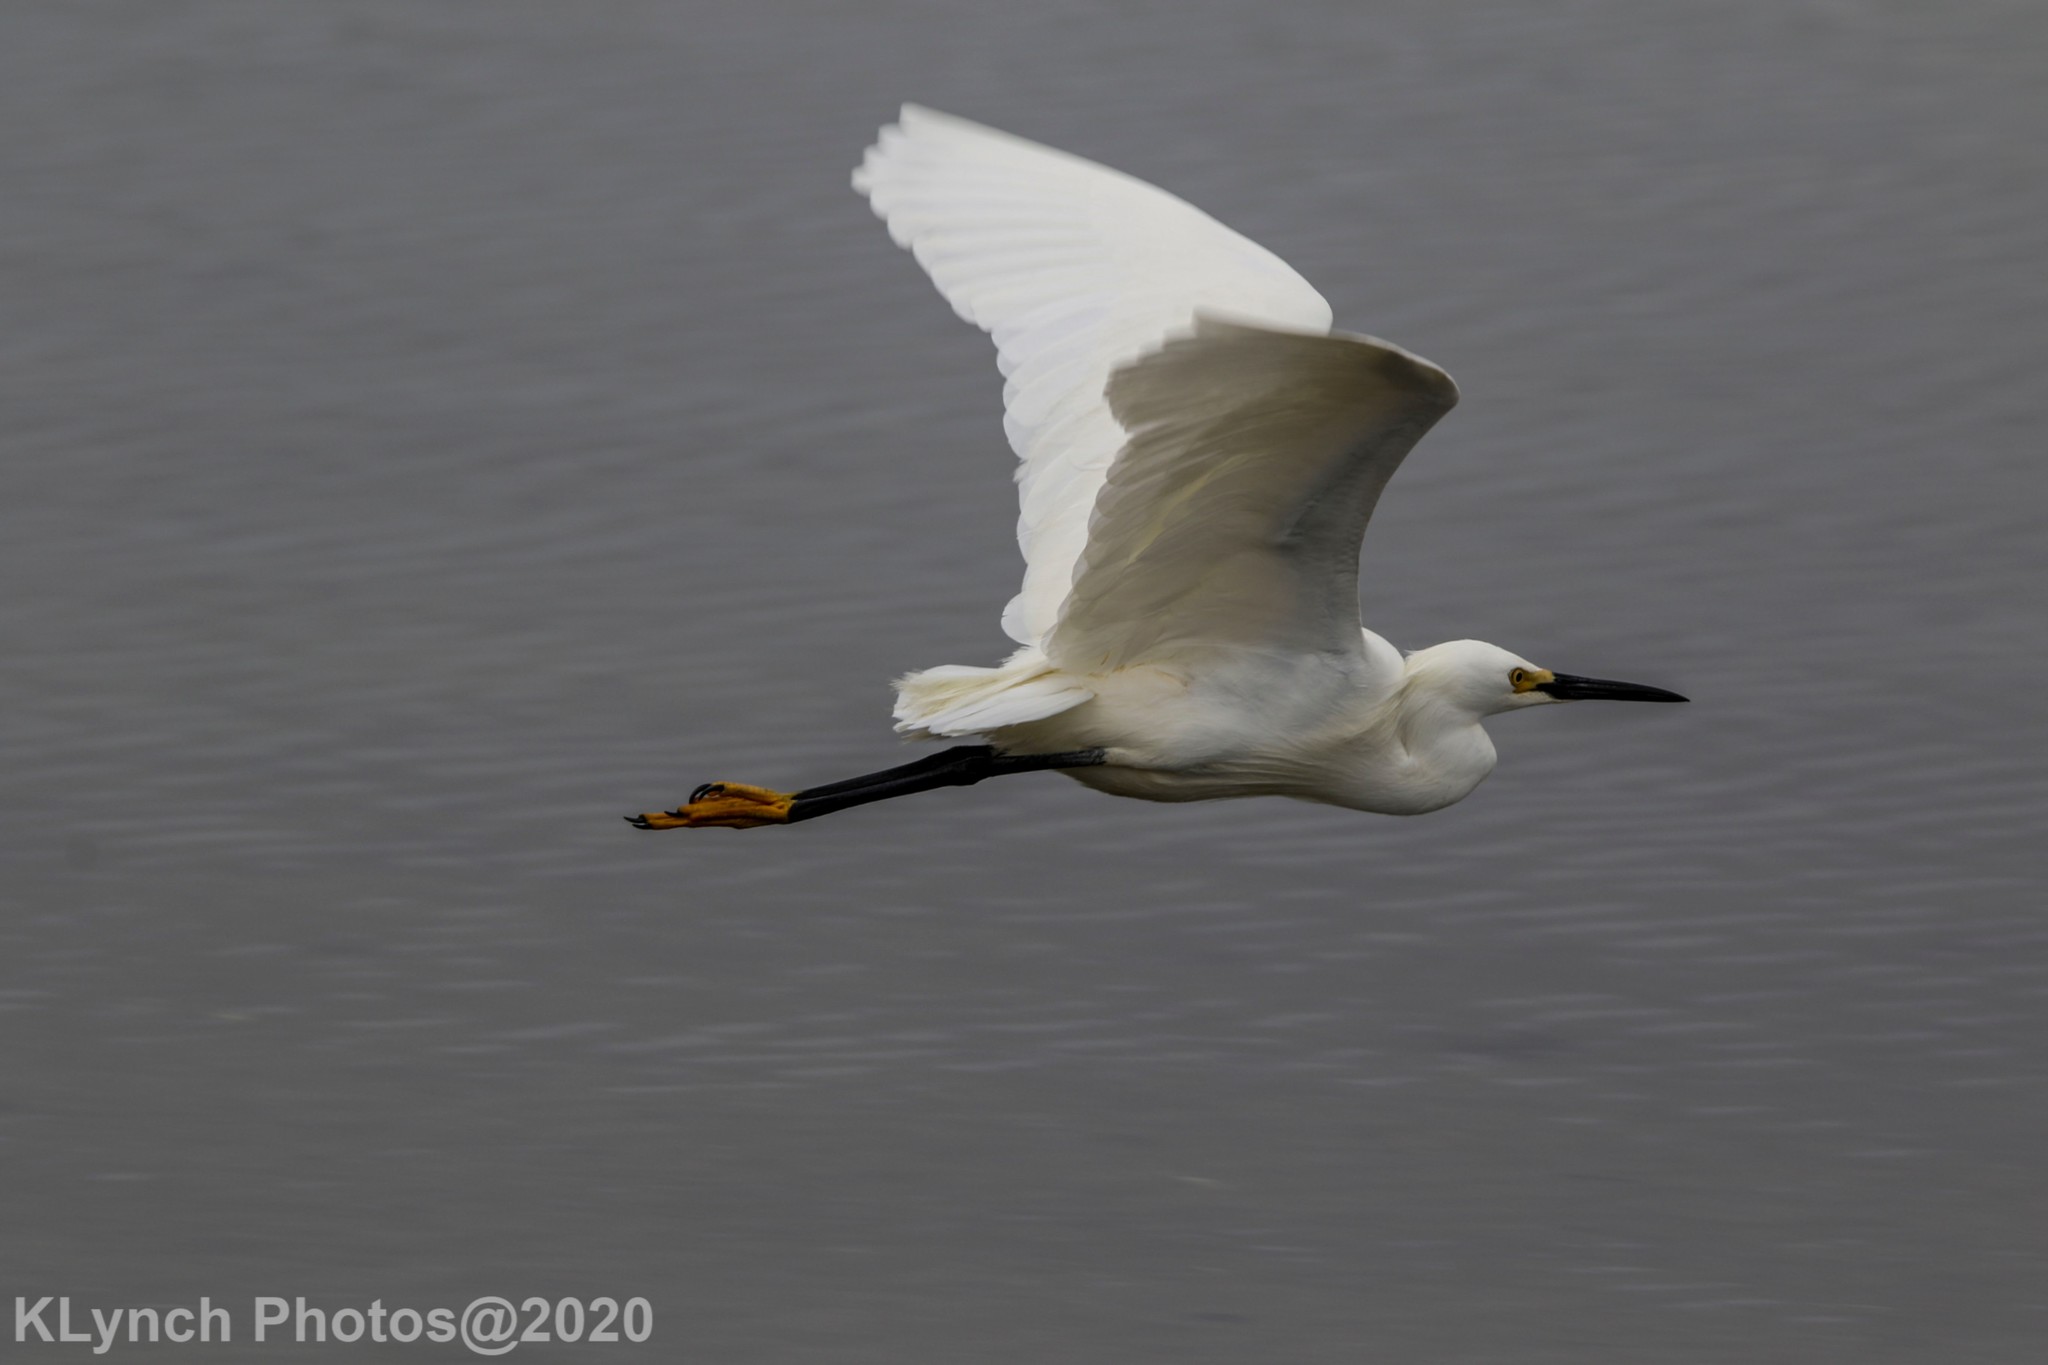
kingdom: Animalia
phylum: Chordata
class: Aves
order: Pelecaniformes
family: Ardeidae
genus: Egretta
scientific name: Egretta thula
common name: Snowy egret
